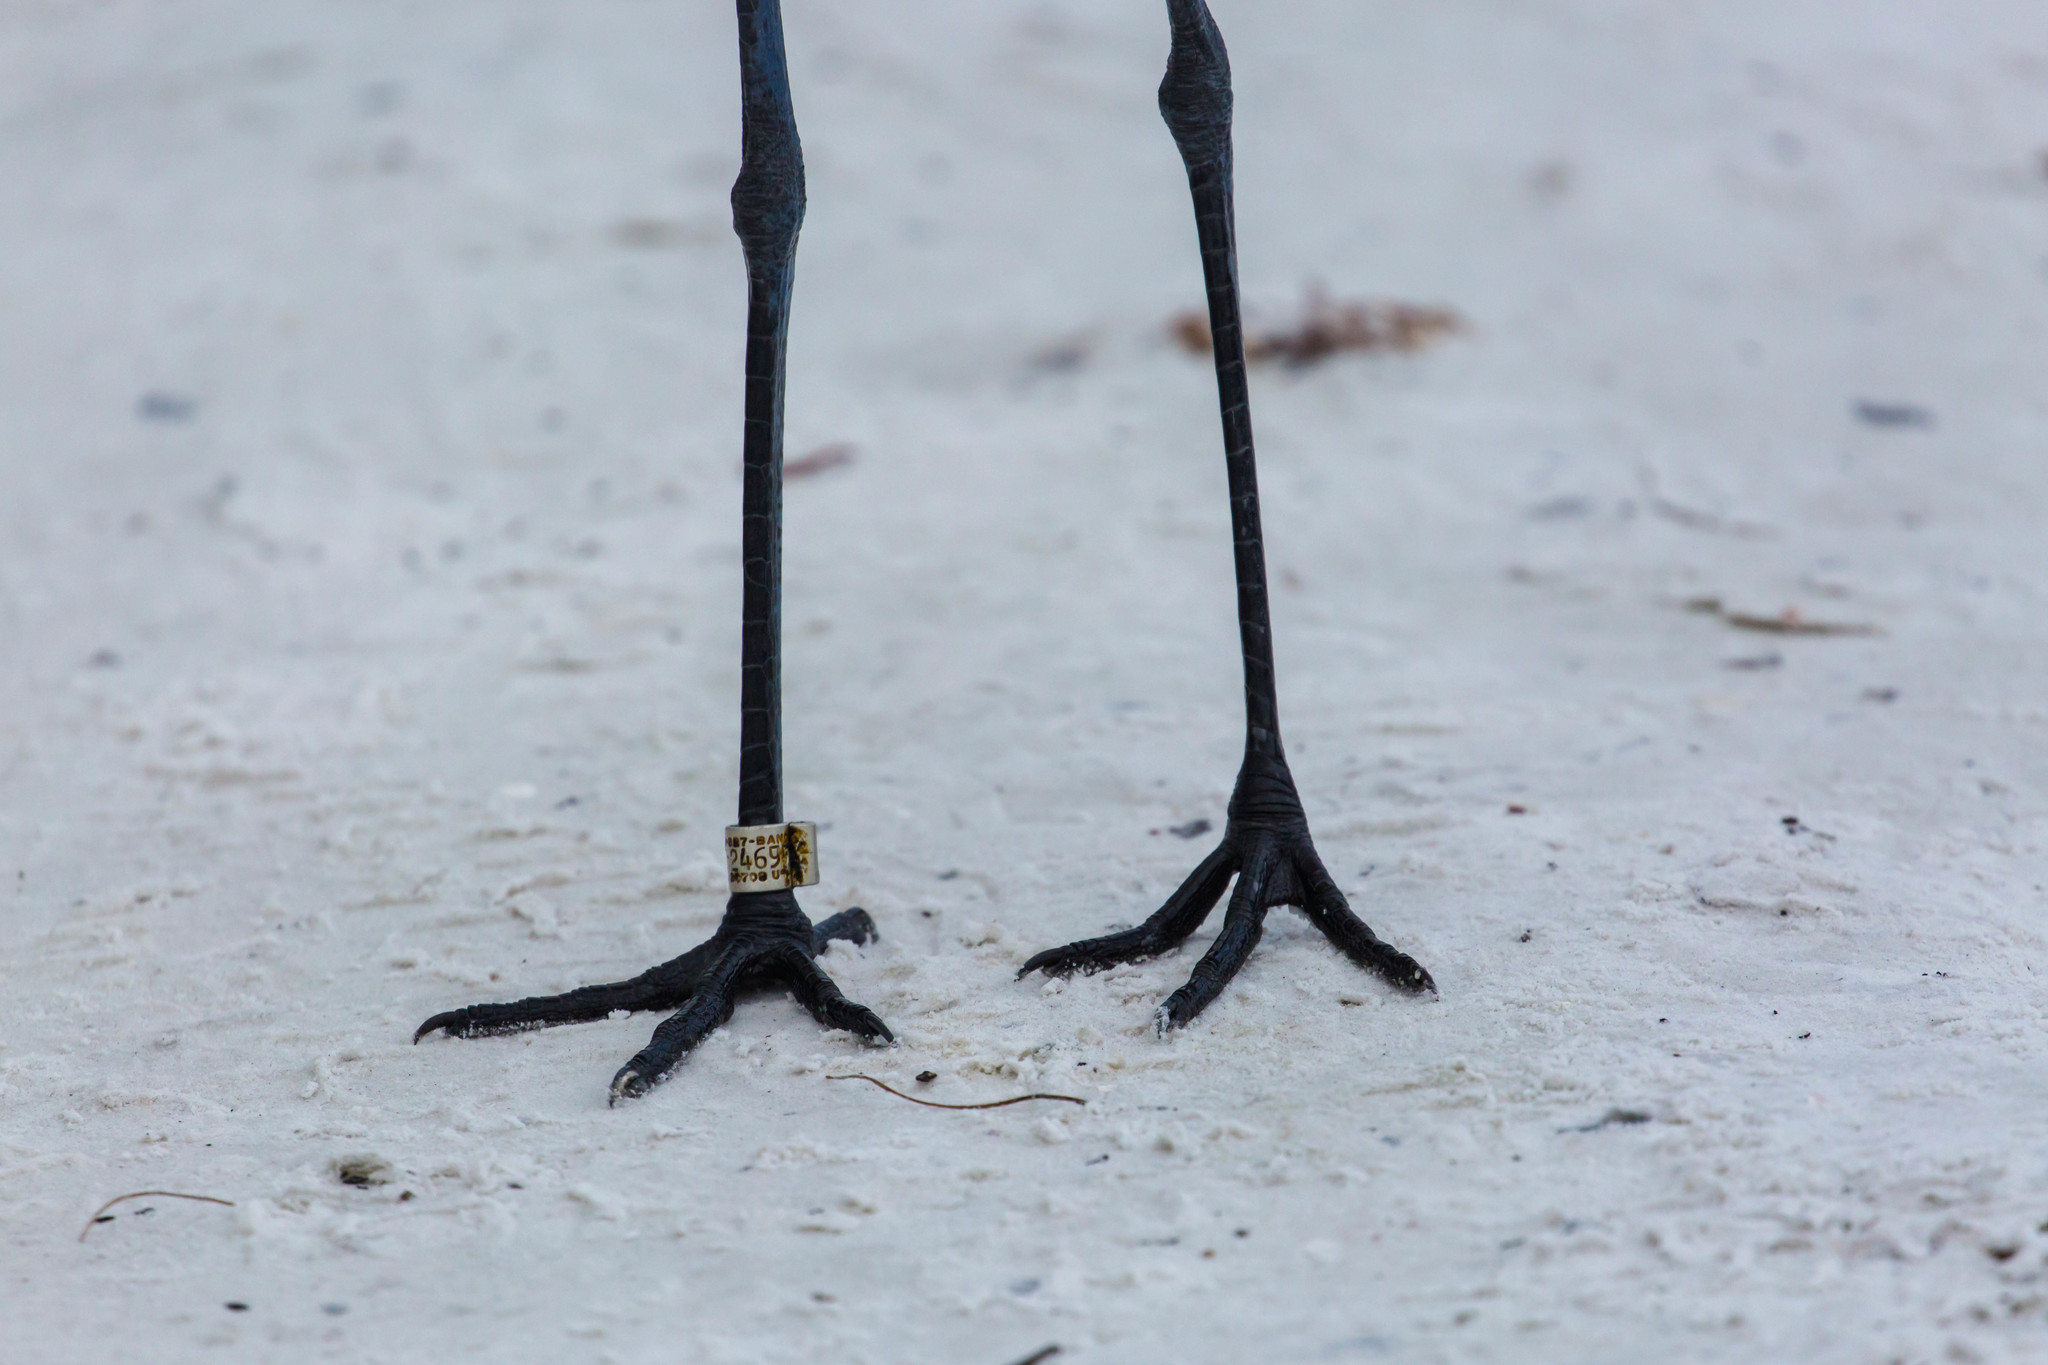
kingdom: Animalia
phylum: Chordata
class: Aves
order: Pelecaniformes
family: Ardeidae
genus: Egretta
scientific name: Egretta rufescens
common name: Reddish egret
